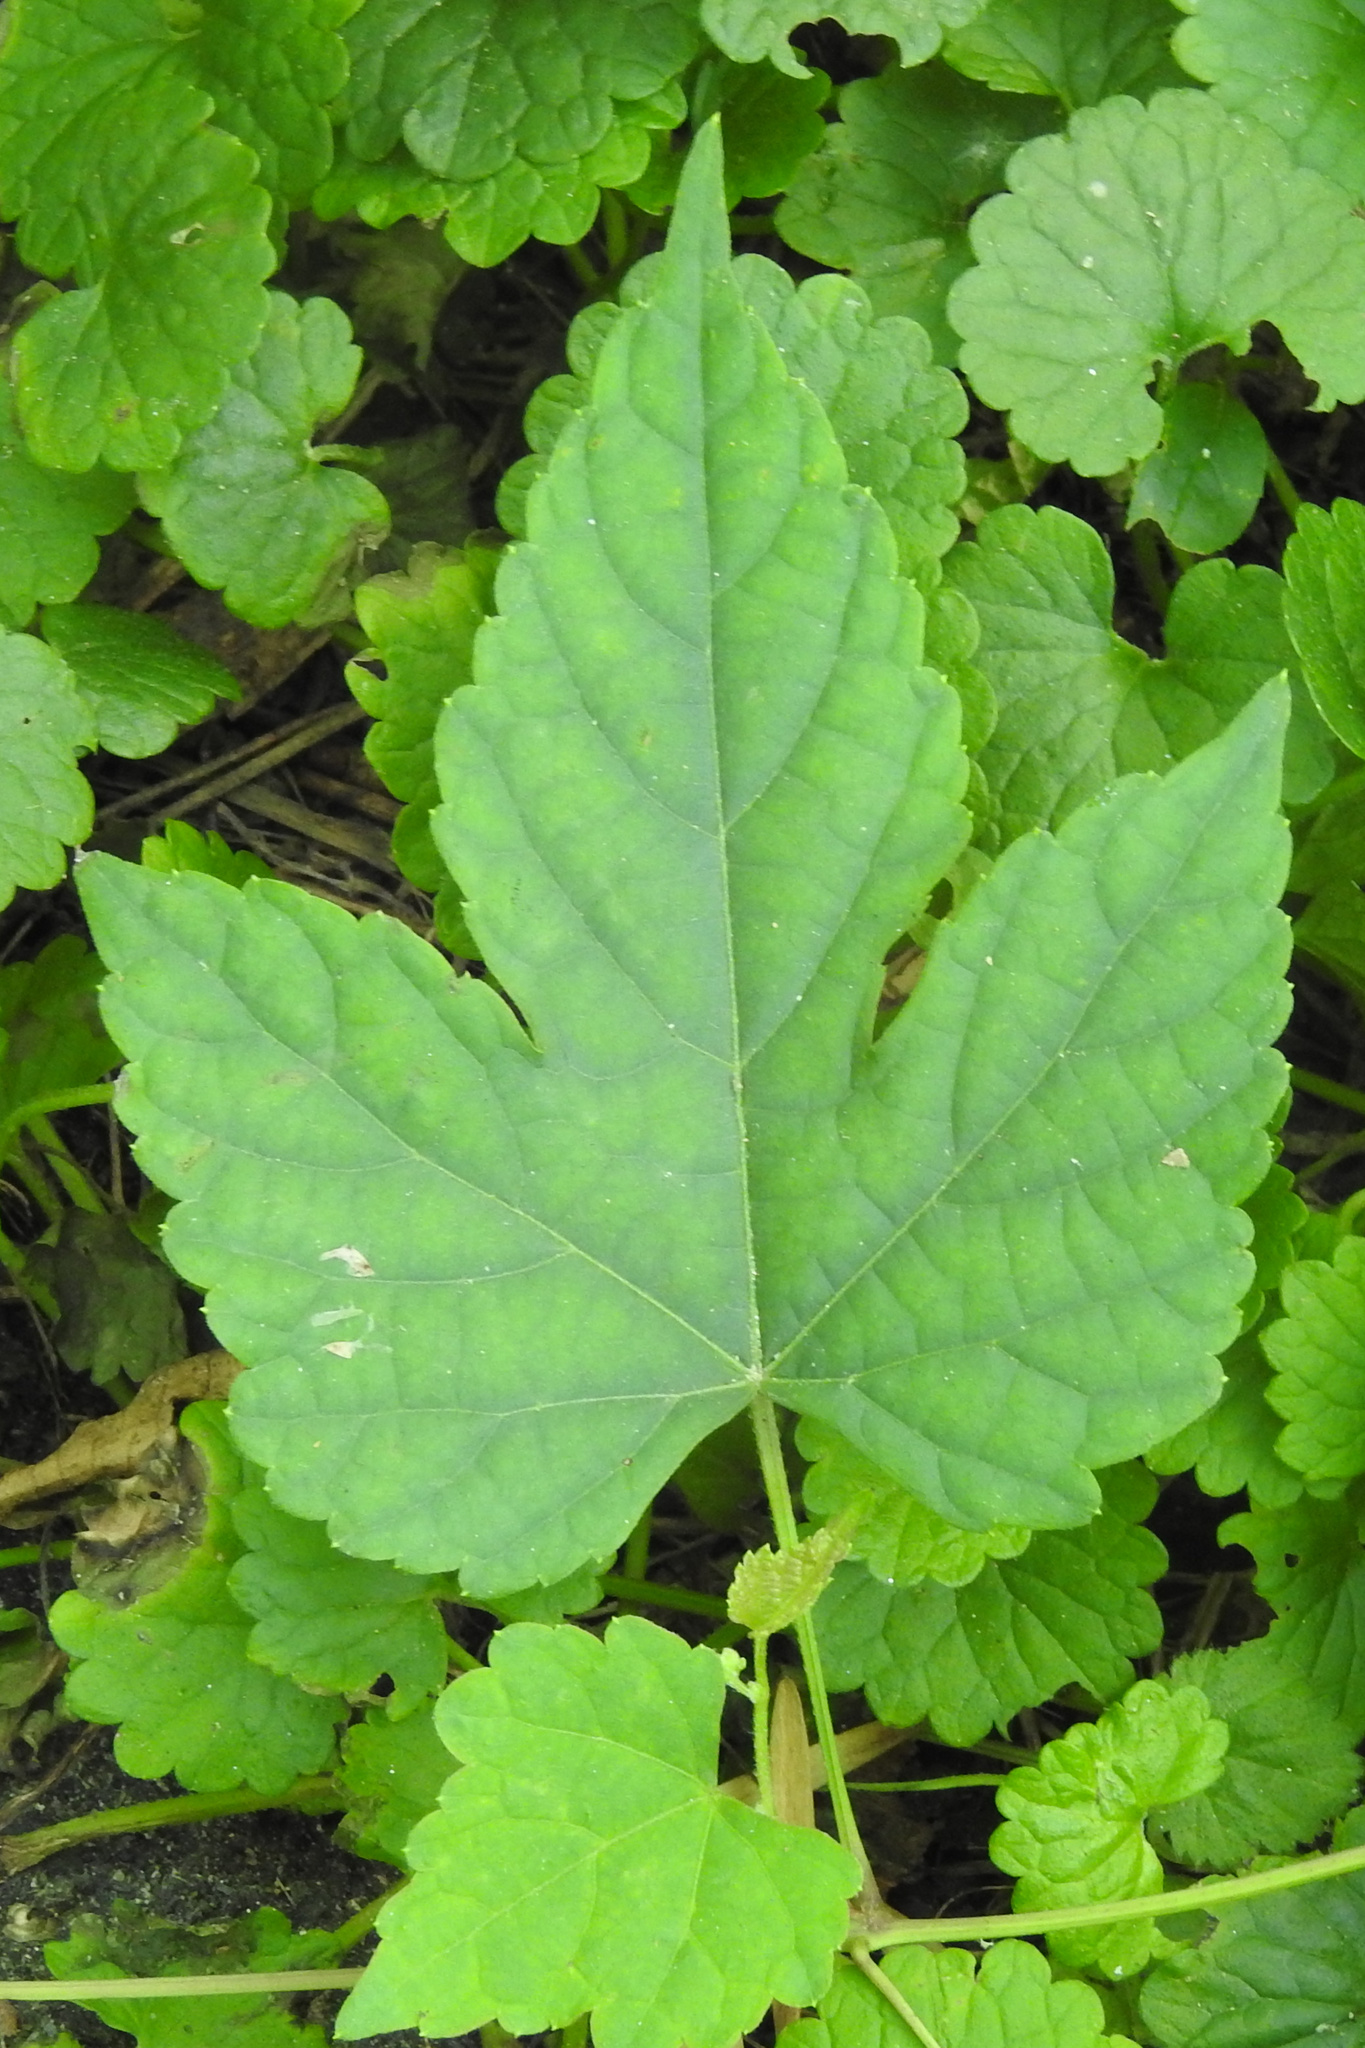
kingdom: Plantae
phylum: Tracheophyta
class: Magnoliopsida
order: Vitales
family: Vitaceae
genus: Ampelopsis
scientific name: Ampelopsis glandulosa
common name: Amur peppervine
